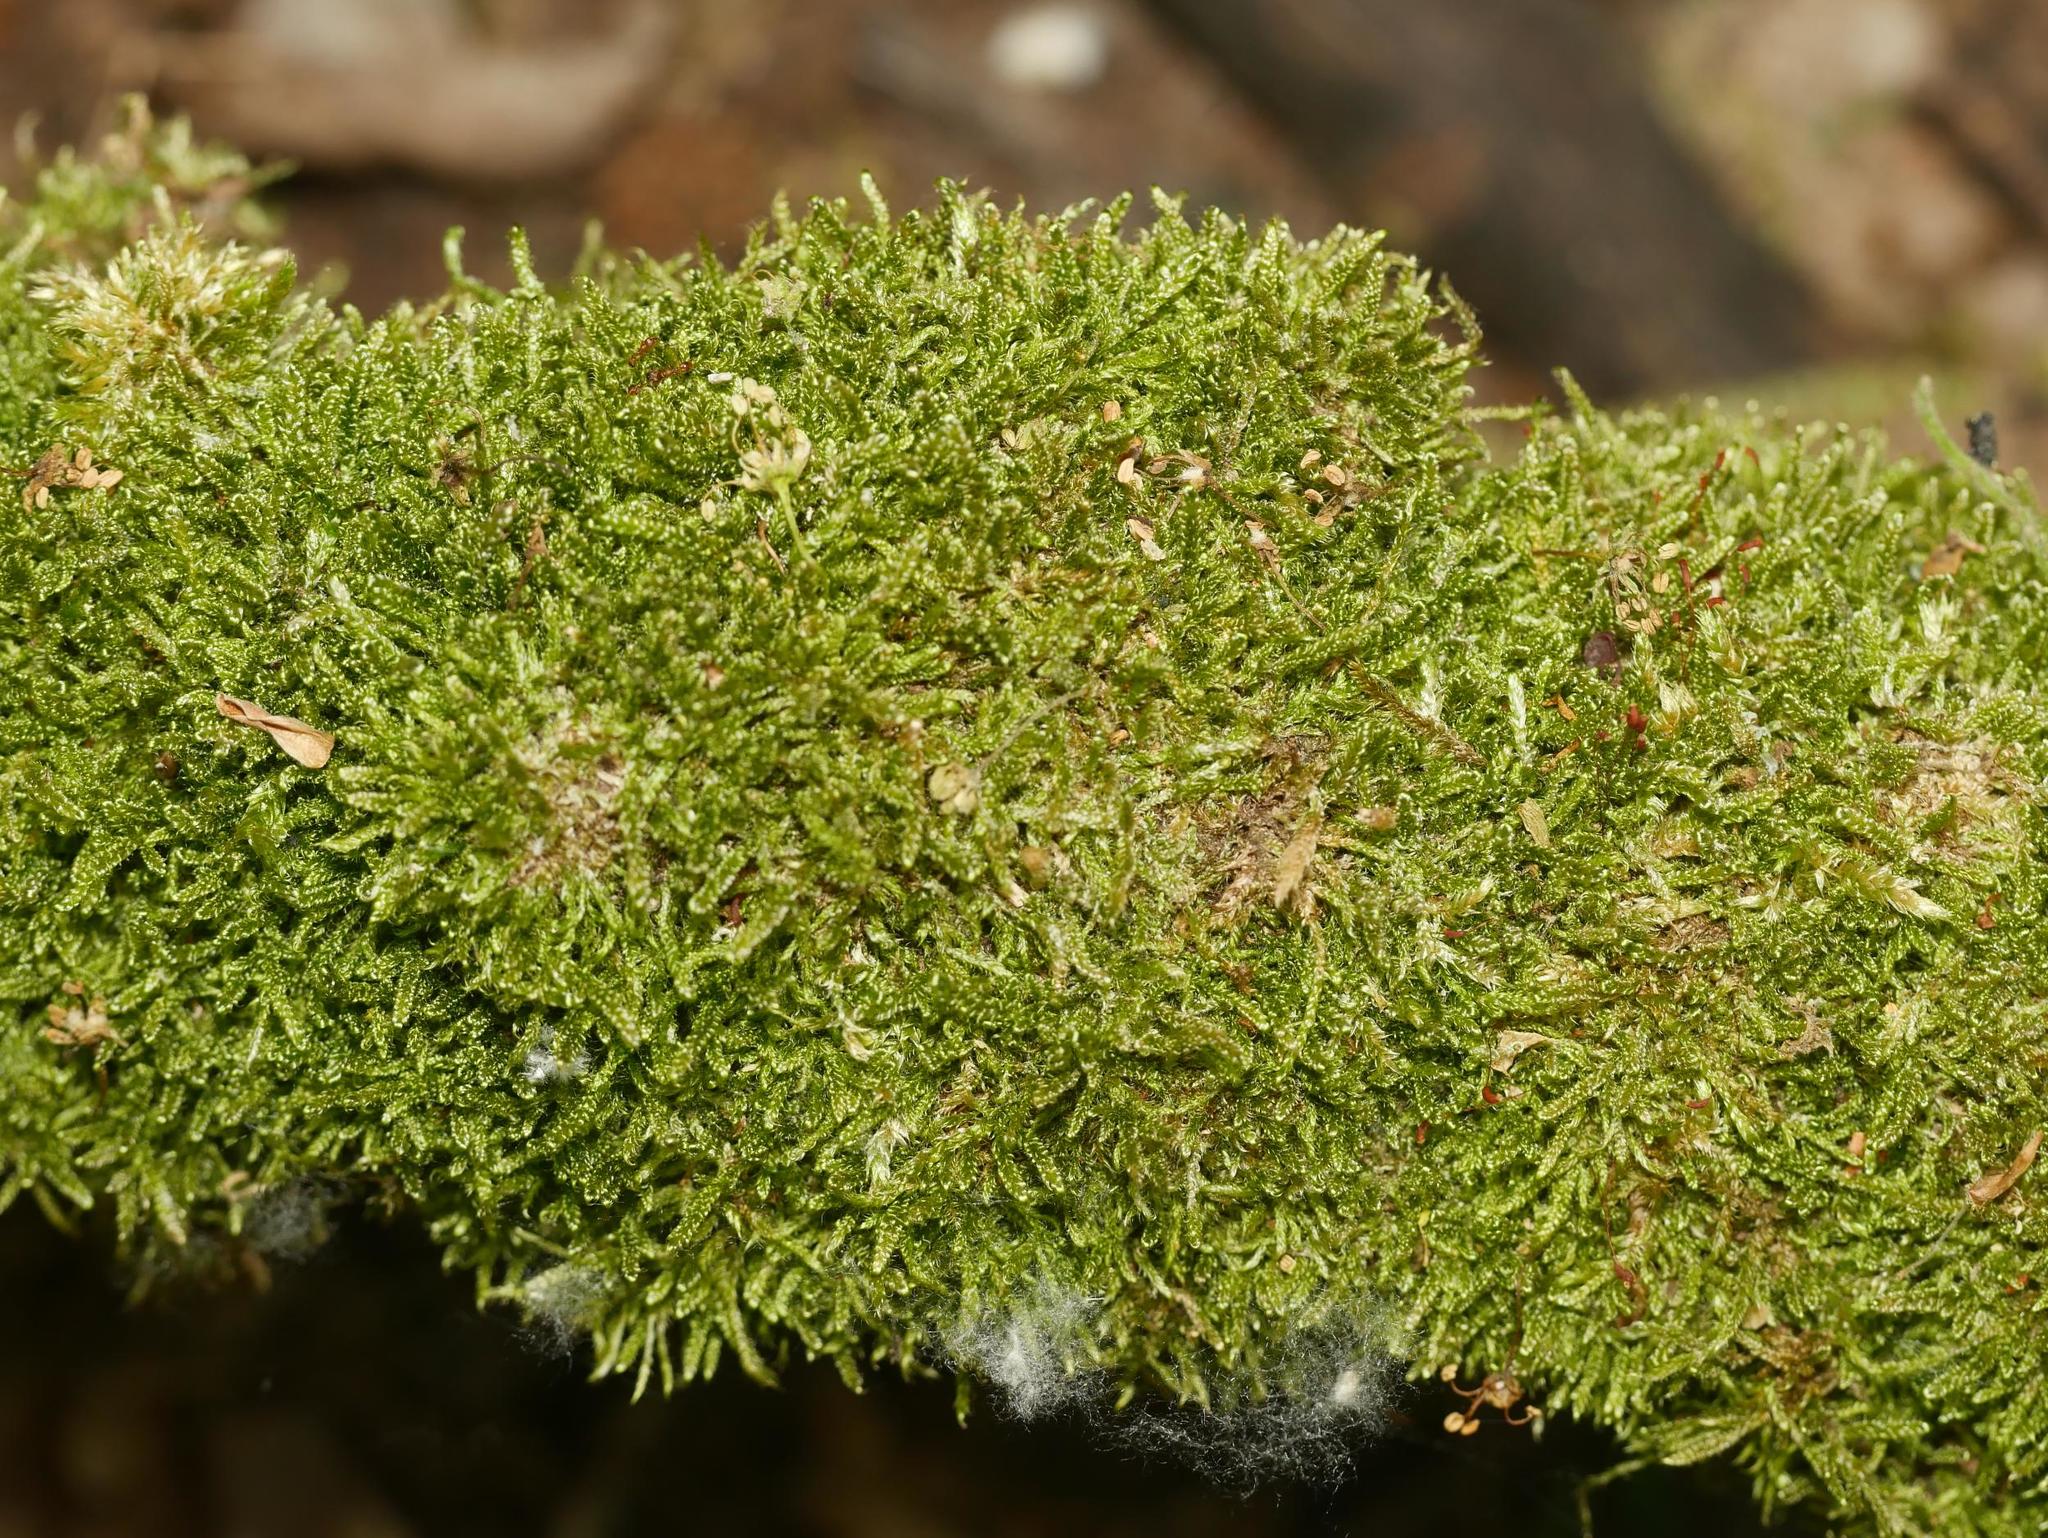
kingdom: Plantae
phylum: Bryophyta
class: Bryopsida
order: Hypnales
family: Hypnaceae
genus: Hypnum
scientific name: Hypnum cupressiforme
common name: Cypress-leaved plait-moss
